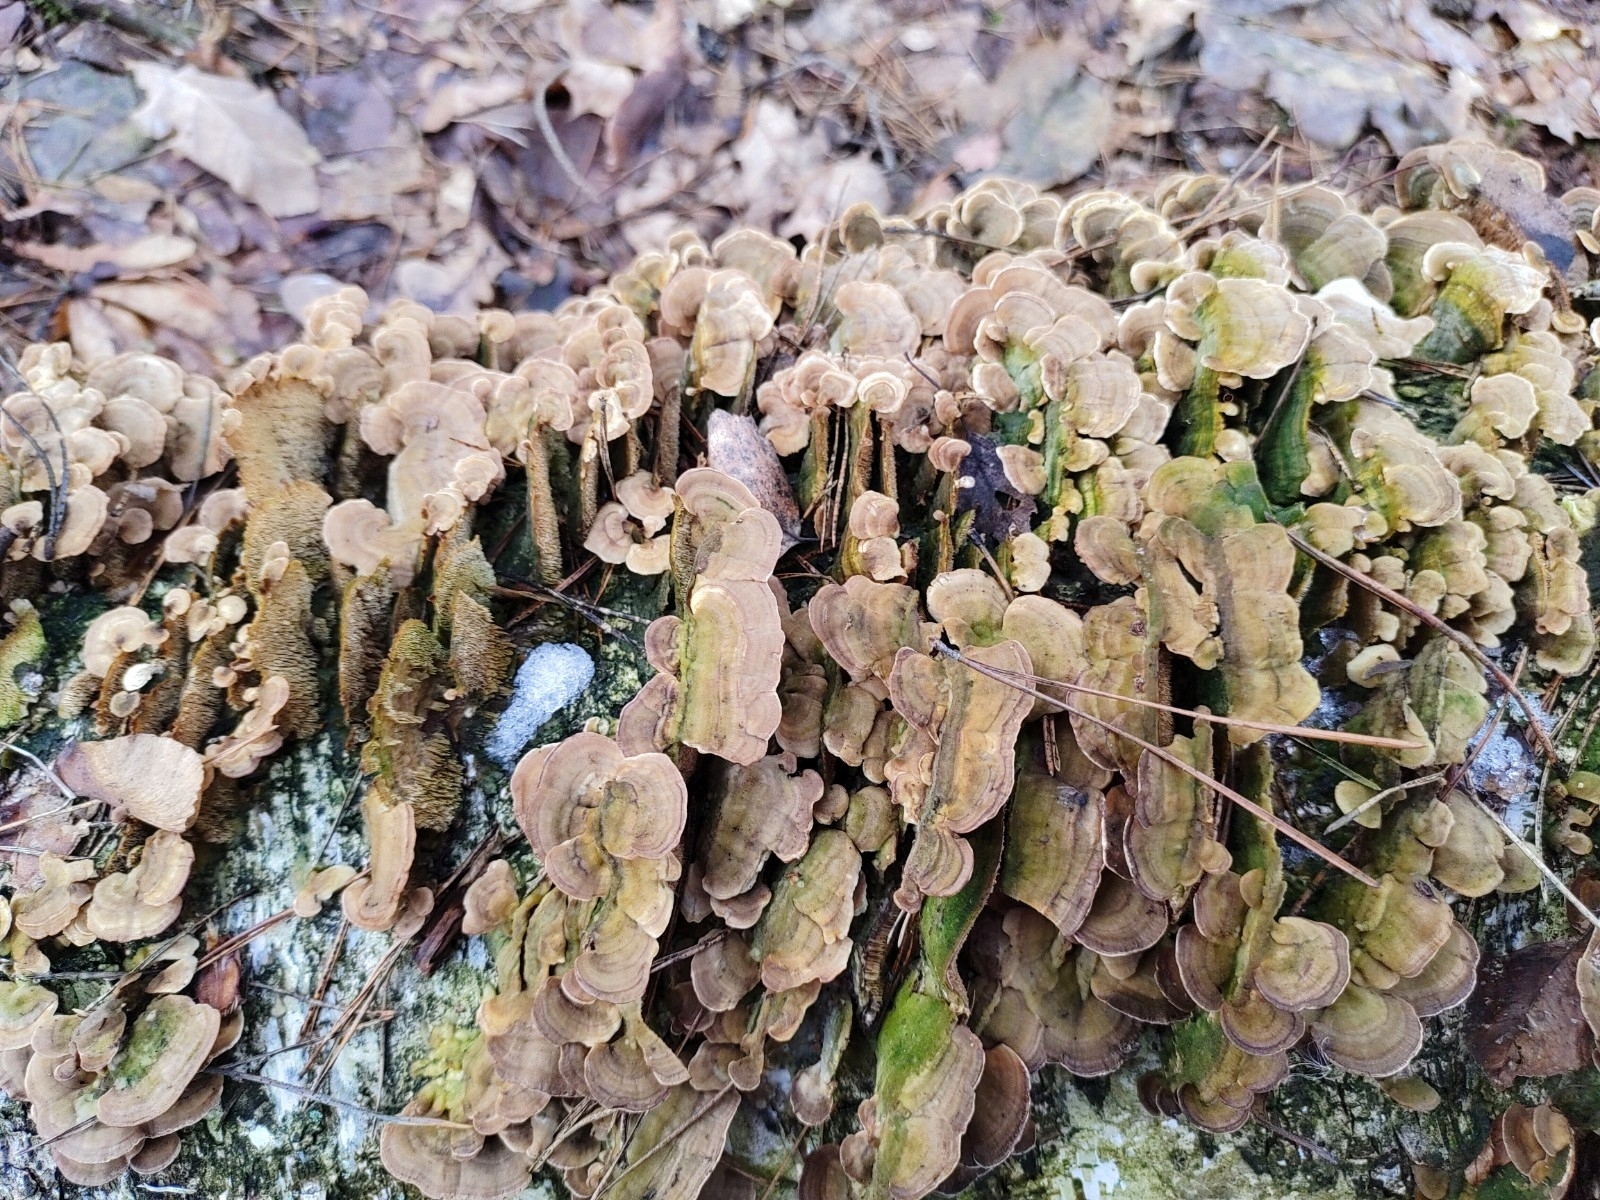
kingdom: Fungi
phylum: Basidiomycota
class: Agaricomycetes
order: Hymenochaetales
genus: Trichaptum
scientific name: Trichaptum biforme
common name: Violet-toothed polypore
